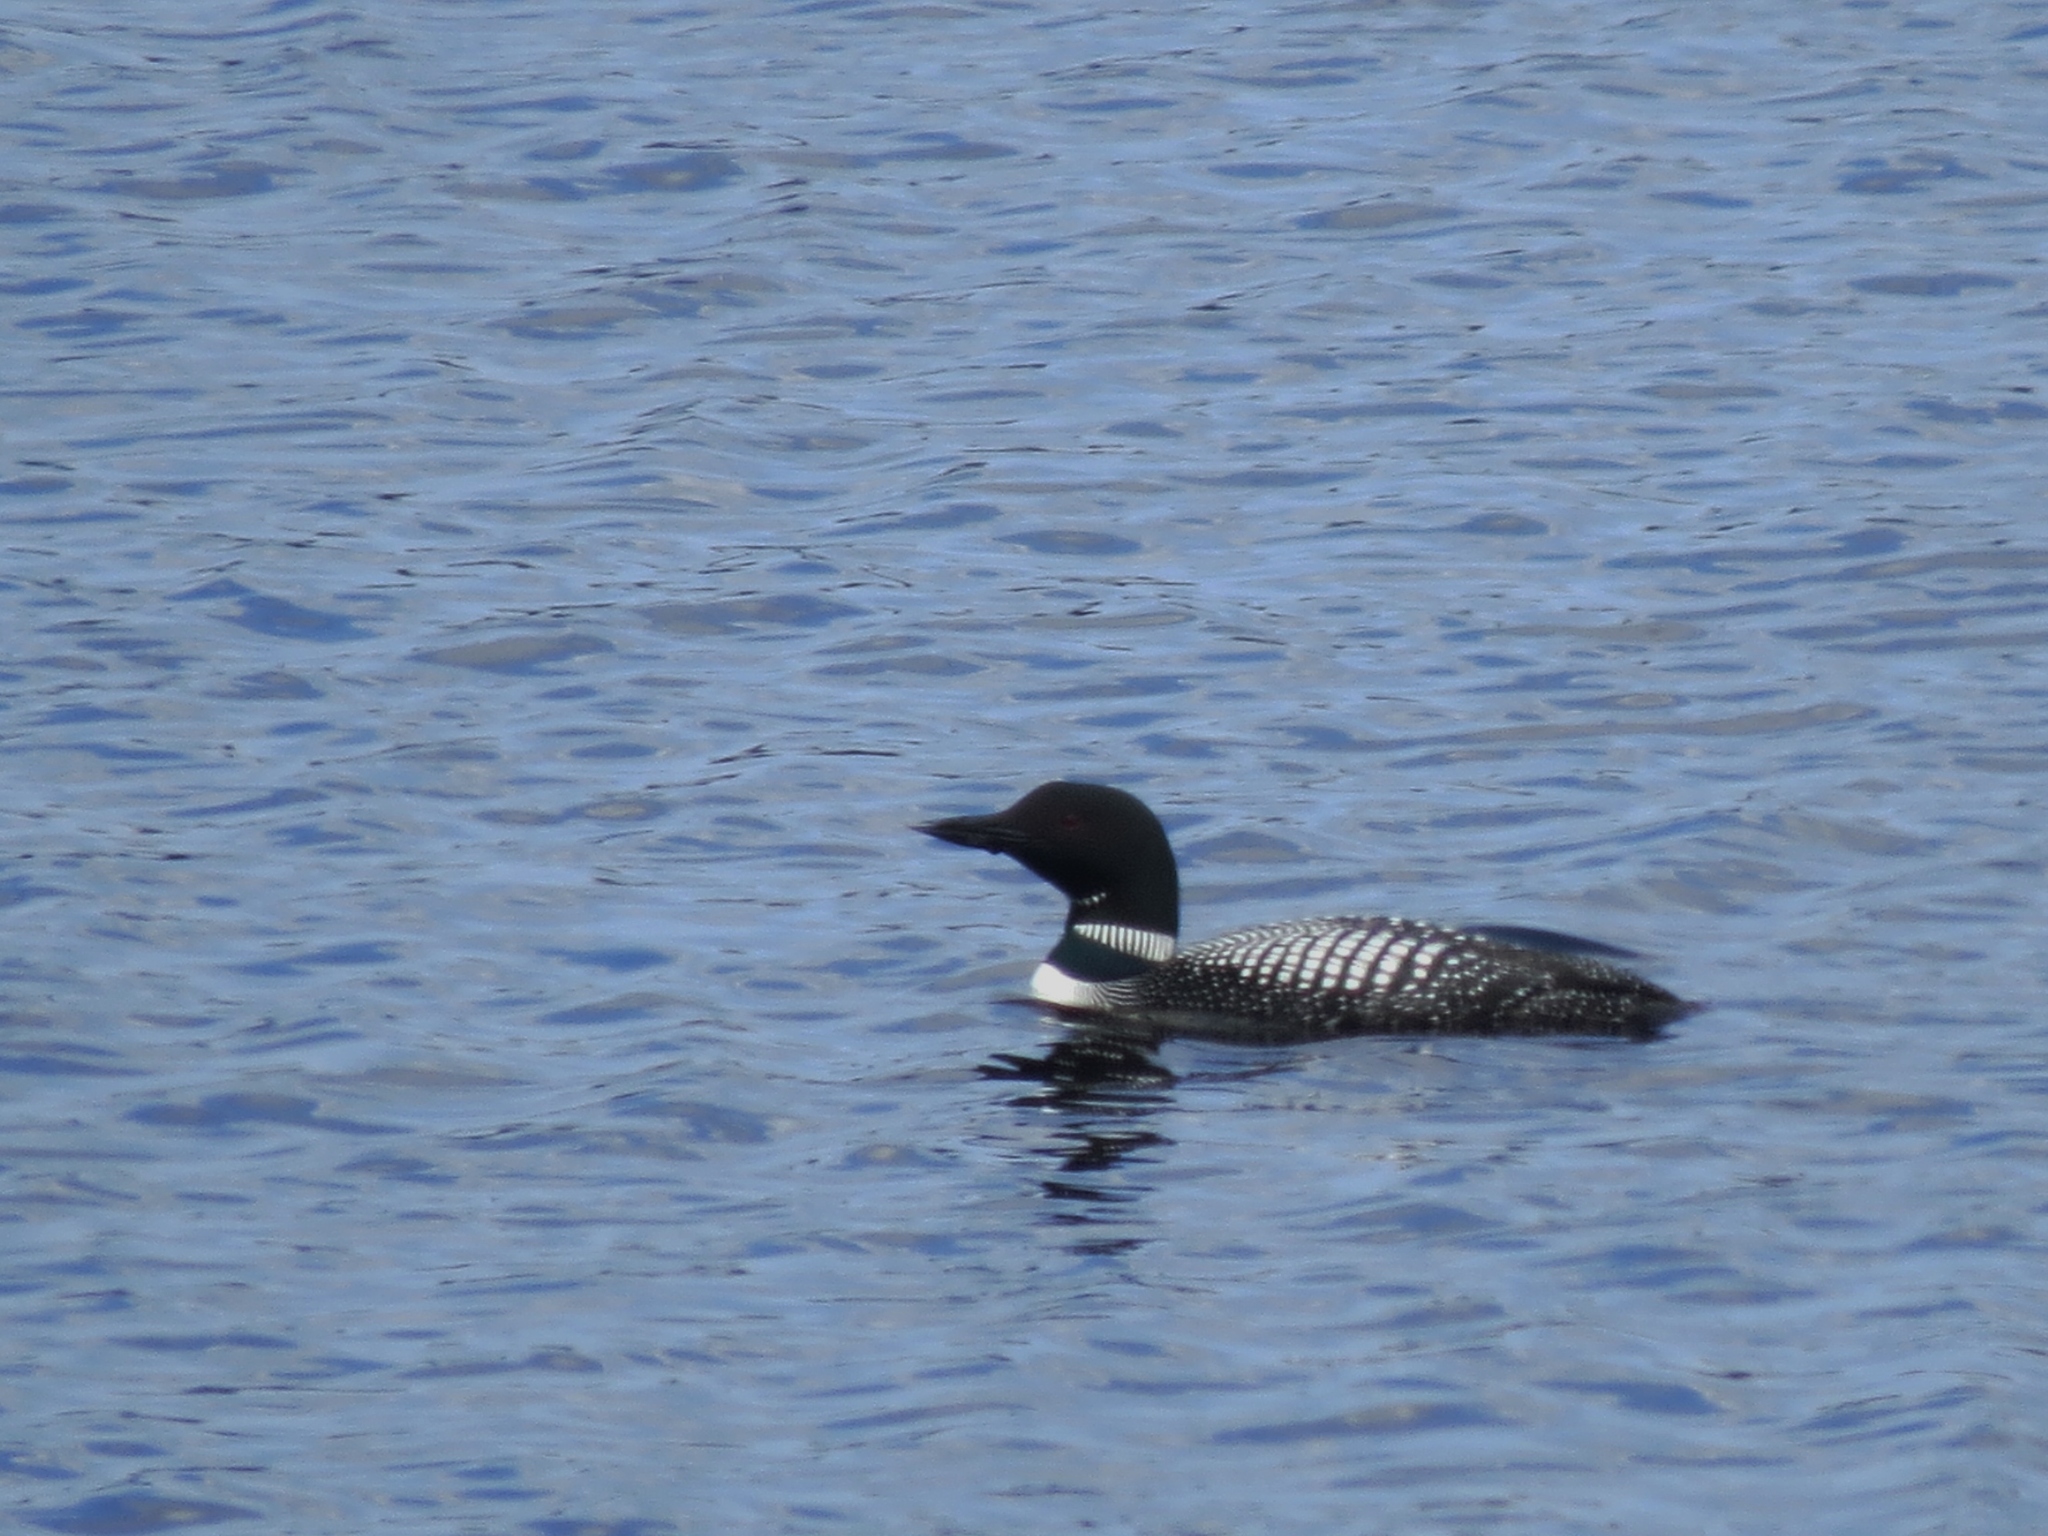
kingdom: Animalia
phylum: Chordata
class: Aves
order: Gaviiformes
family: Gaviidae
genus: Gavia
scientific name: Gavia immer
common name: Common loon
